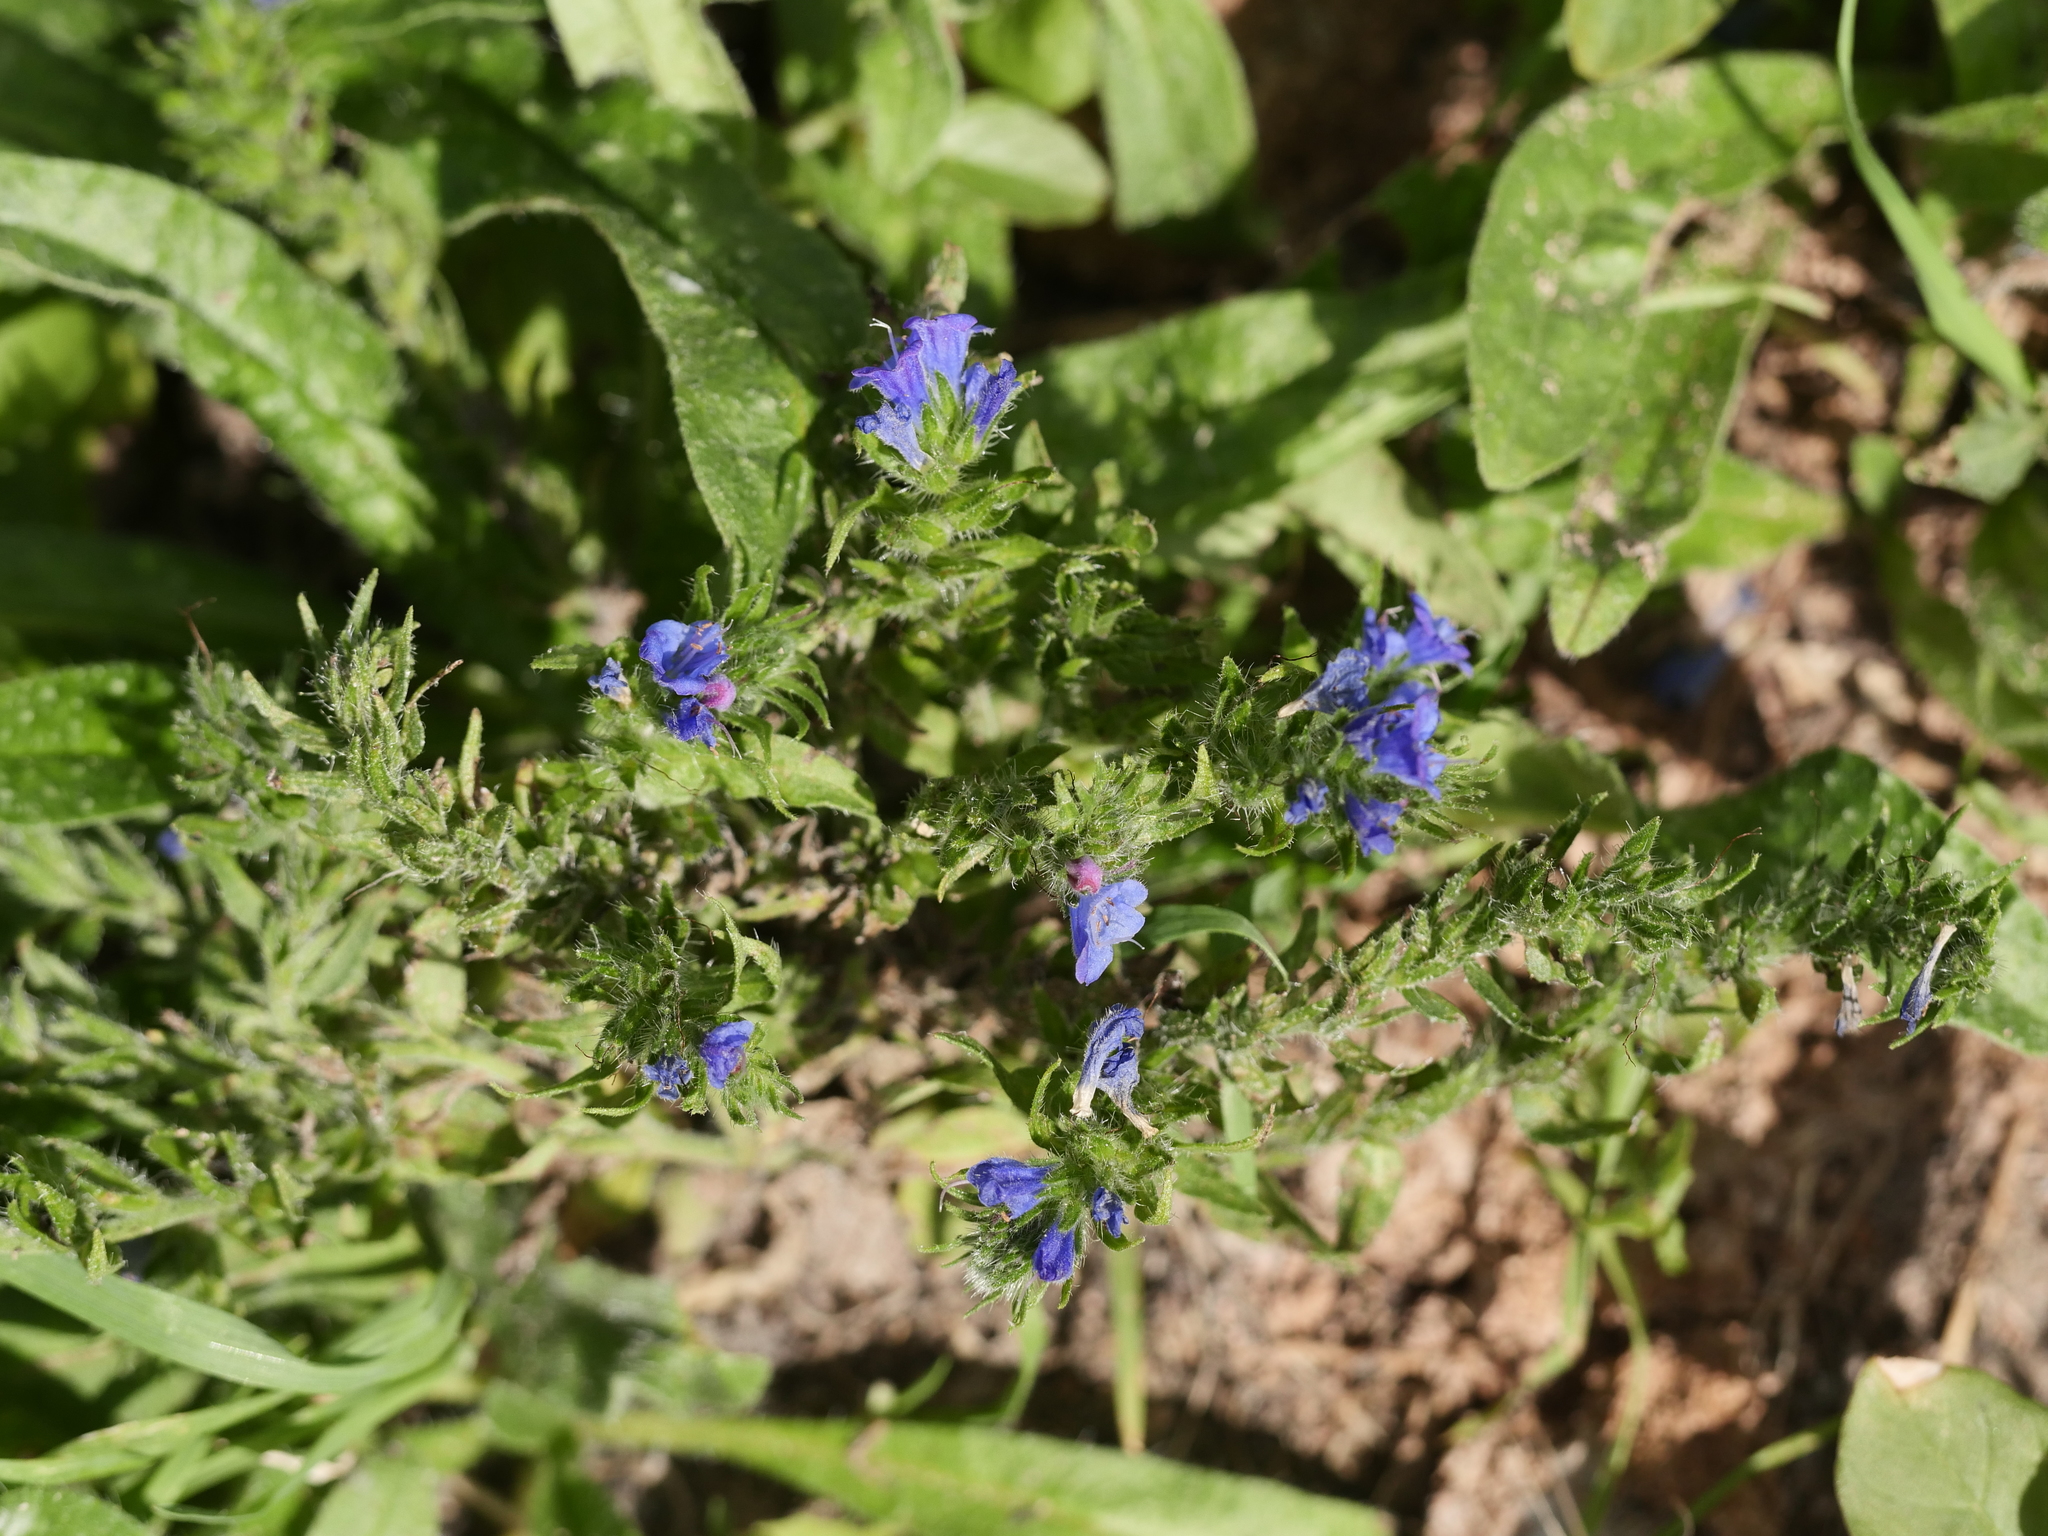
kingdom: Plantae
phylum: Tracheophyta
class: Magnoliopsida
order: Boraginales
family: Boraginaceae
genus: Echium
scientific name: Echium vulgare
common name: Common viper's bugloss
